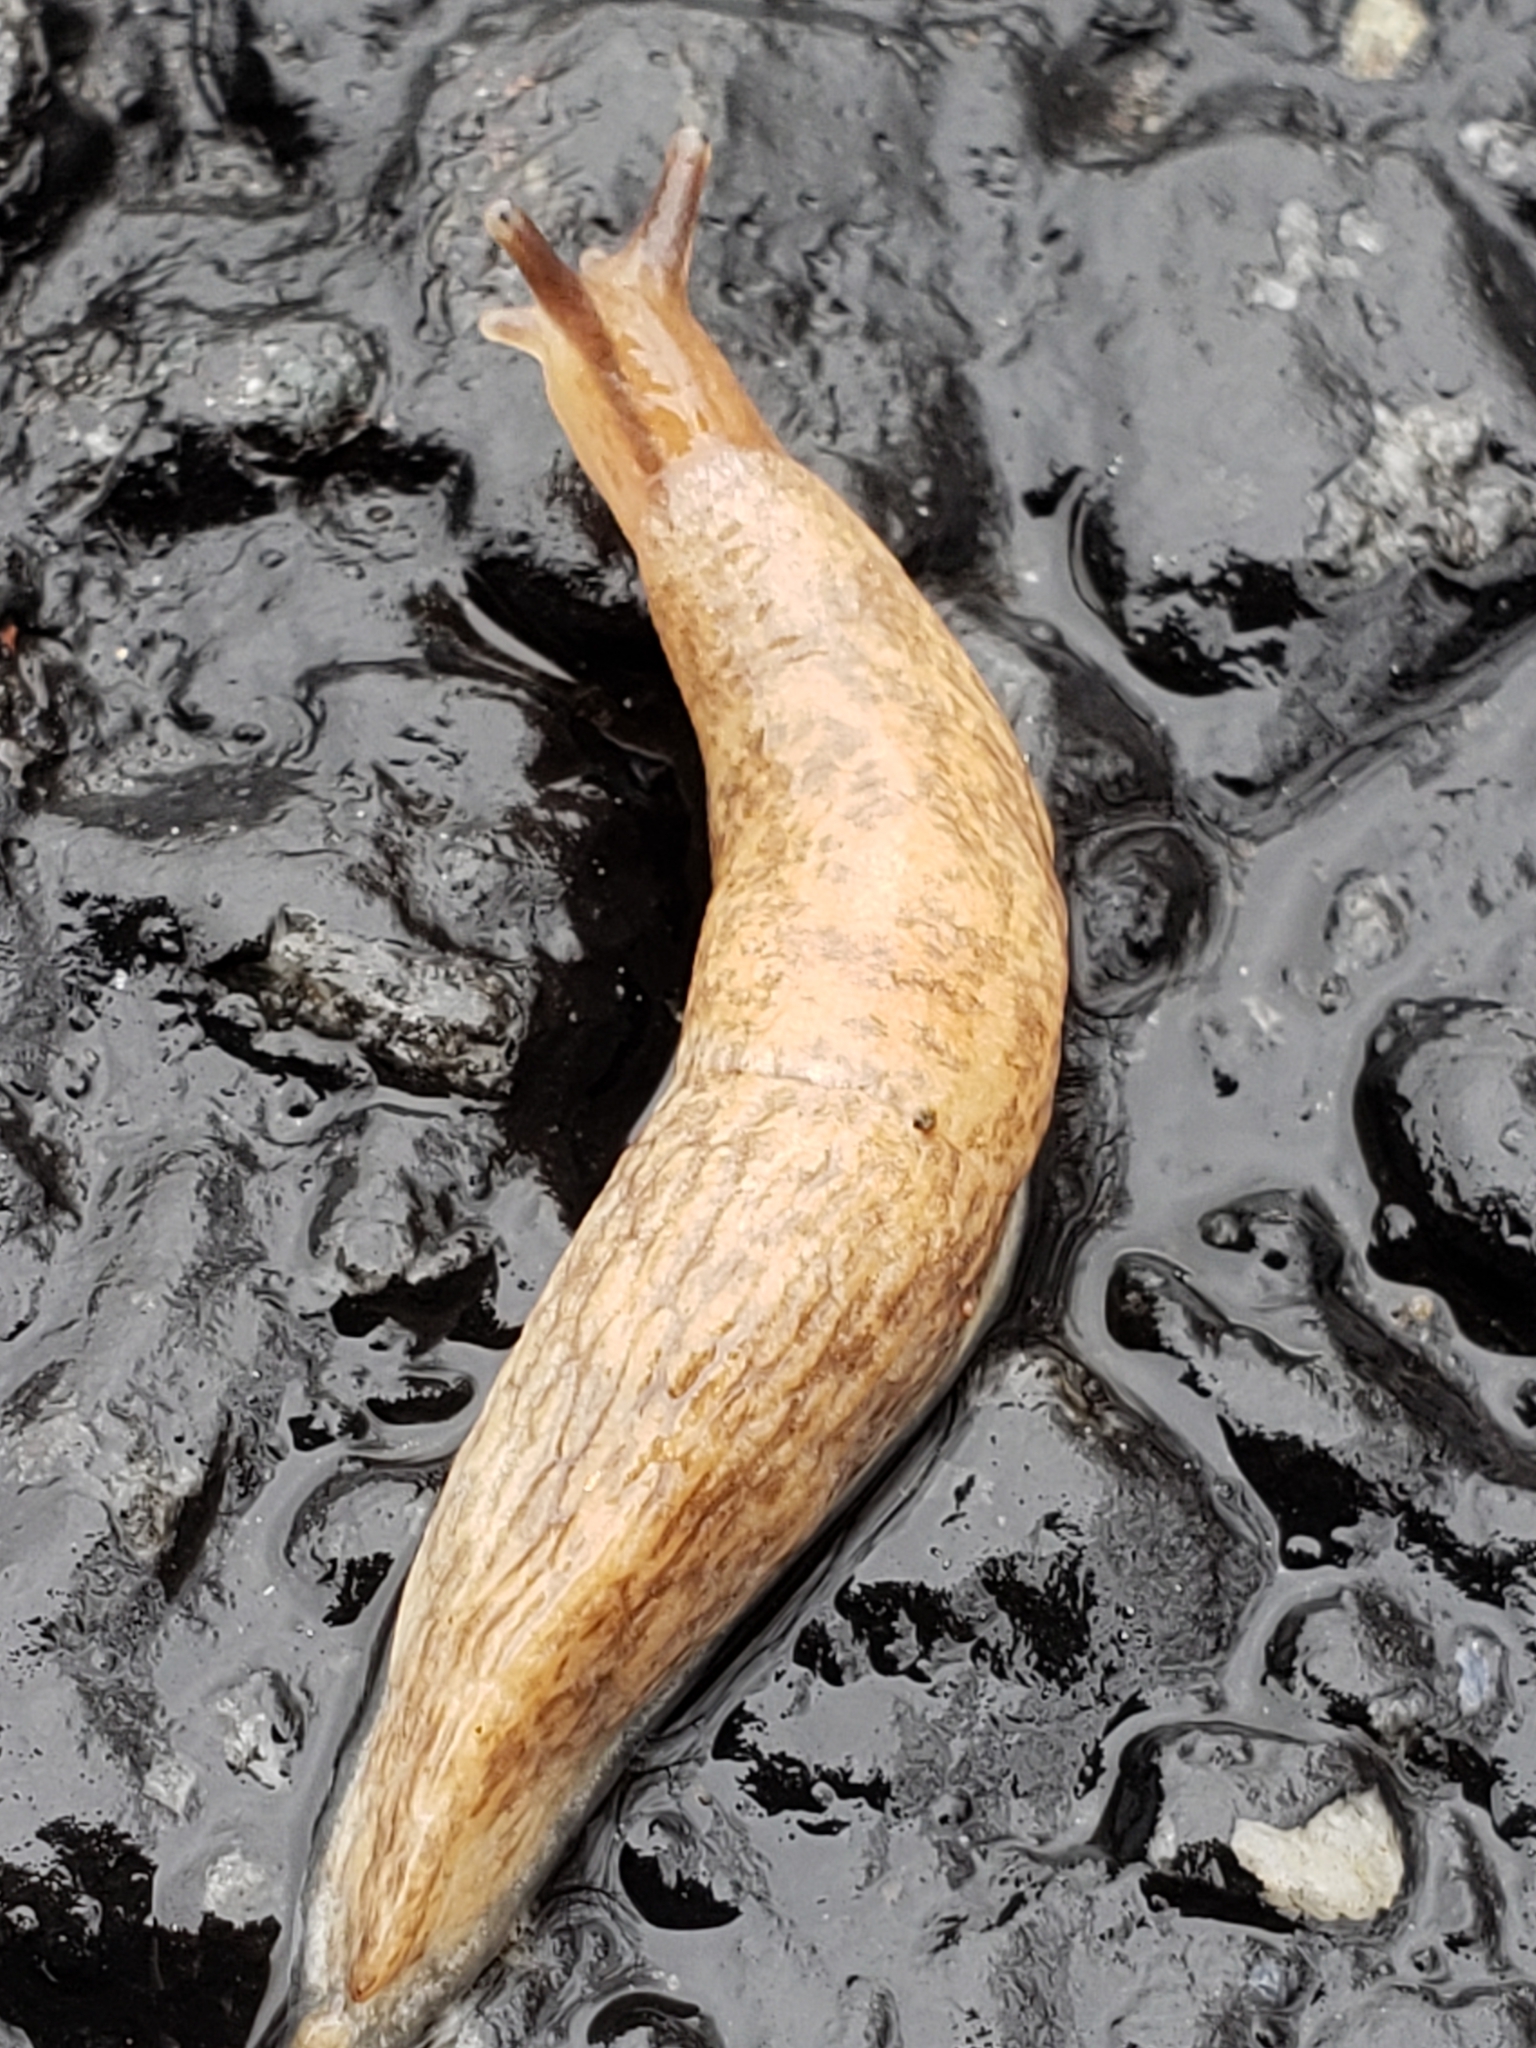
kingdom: Animalia
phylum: Mollusca
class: Gastropoda
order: Stylommatophora
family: Agriolimacidae
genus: Deroceras
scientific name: Deroceras reticulatum
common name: Gray field slug
